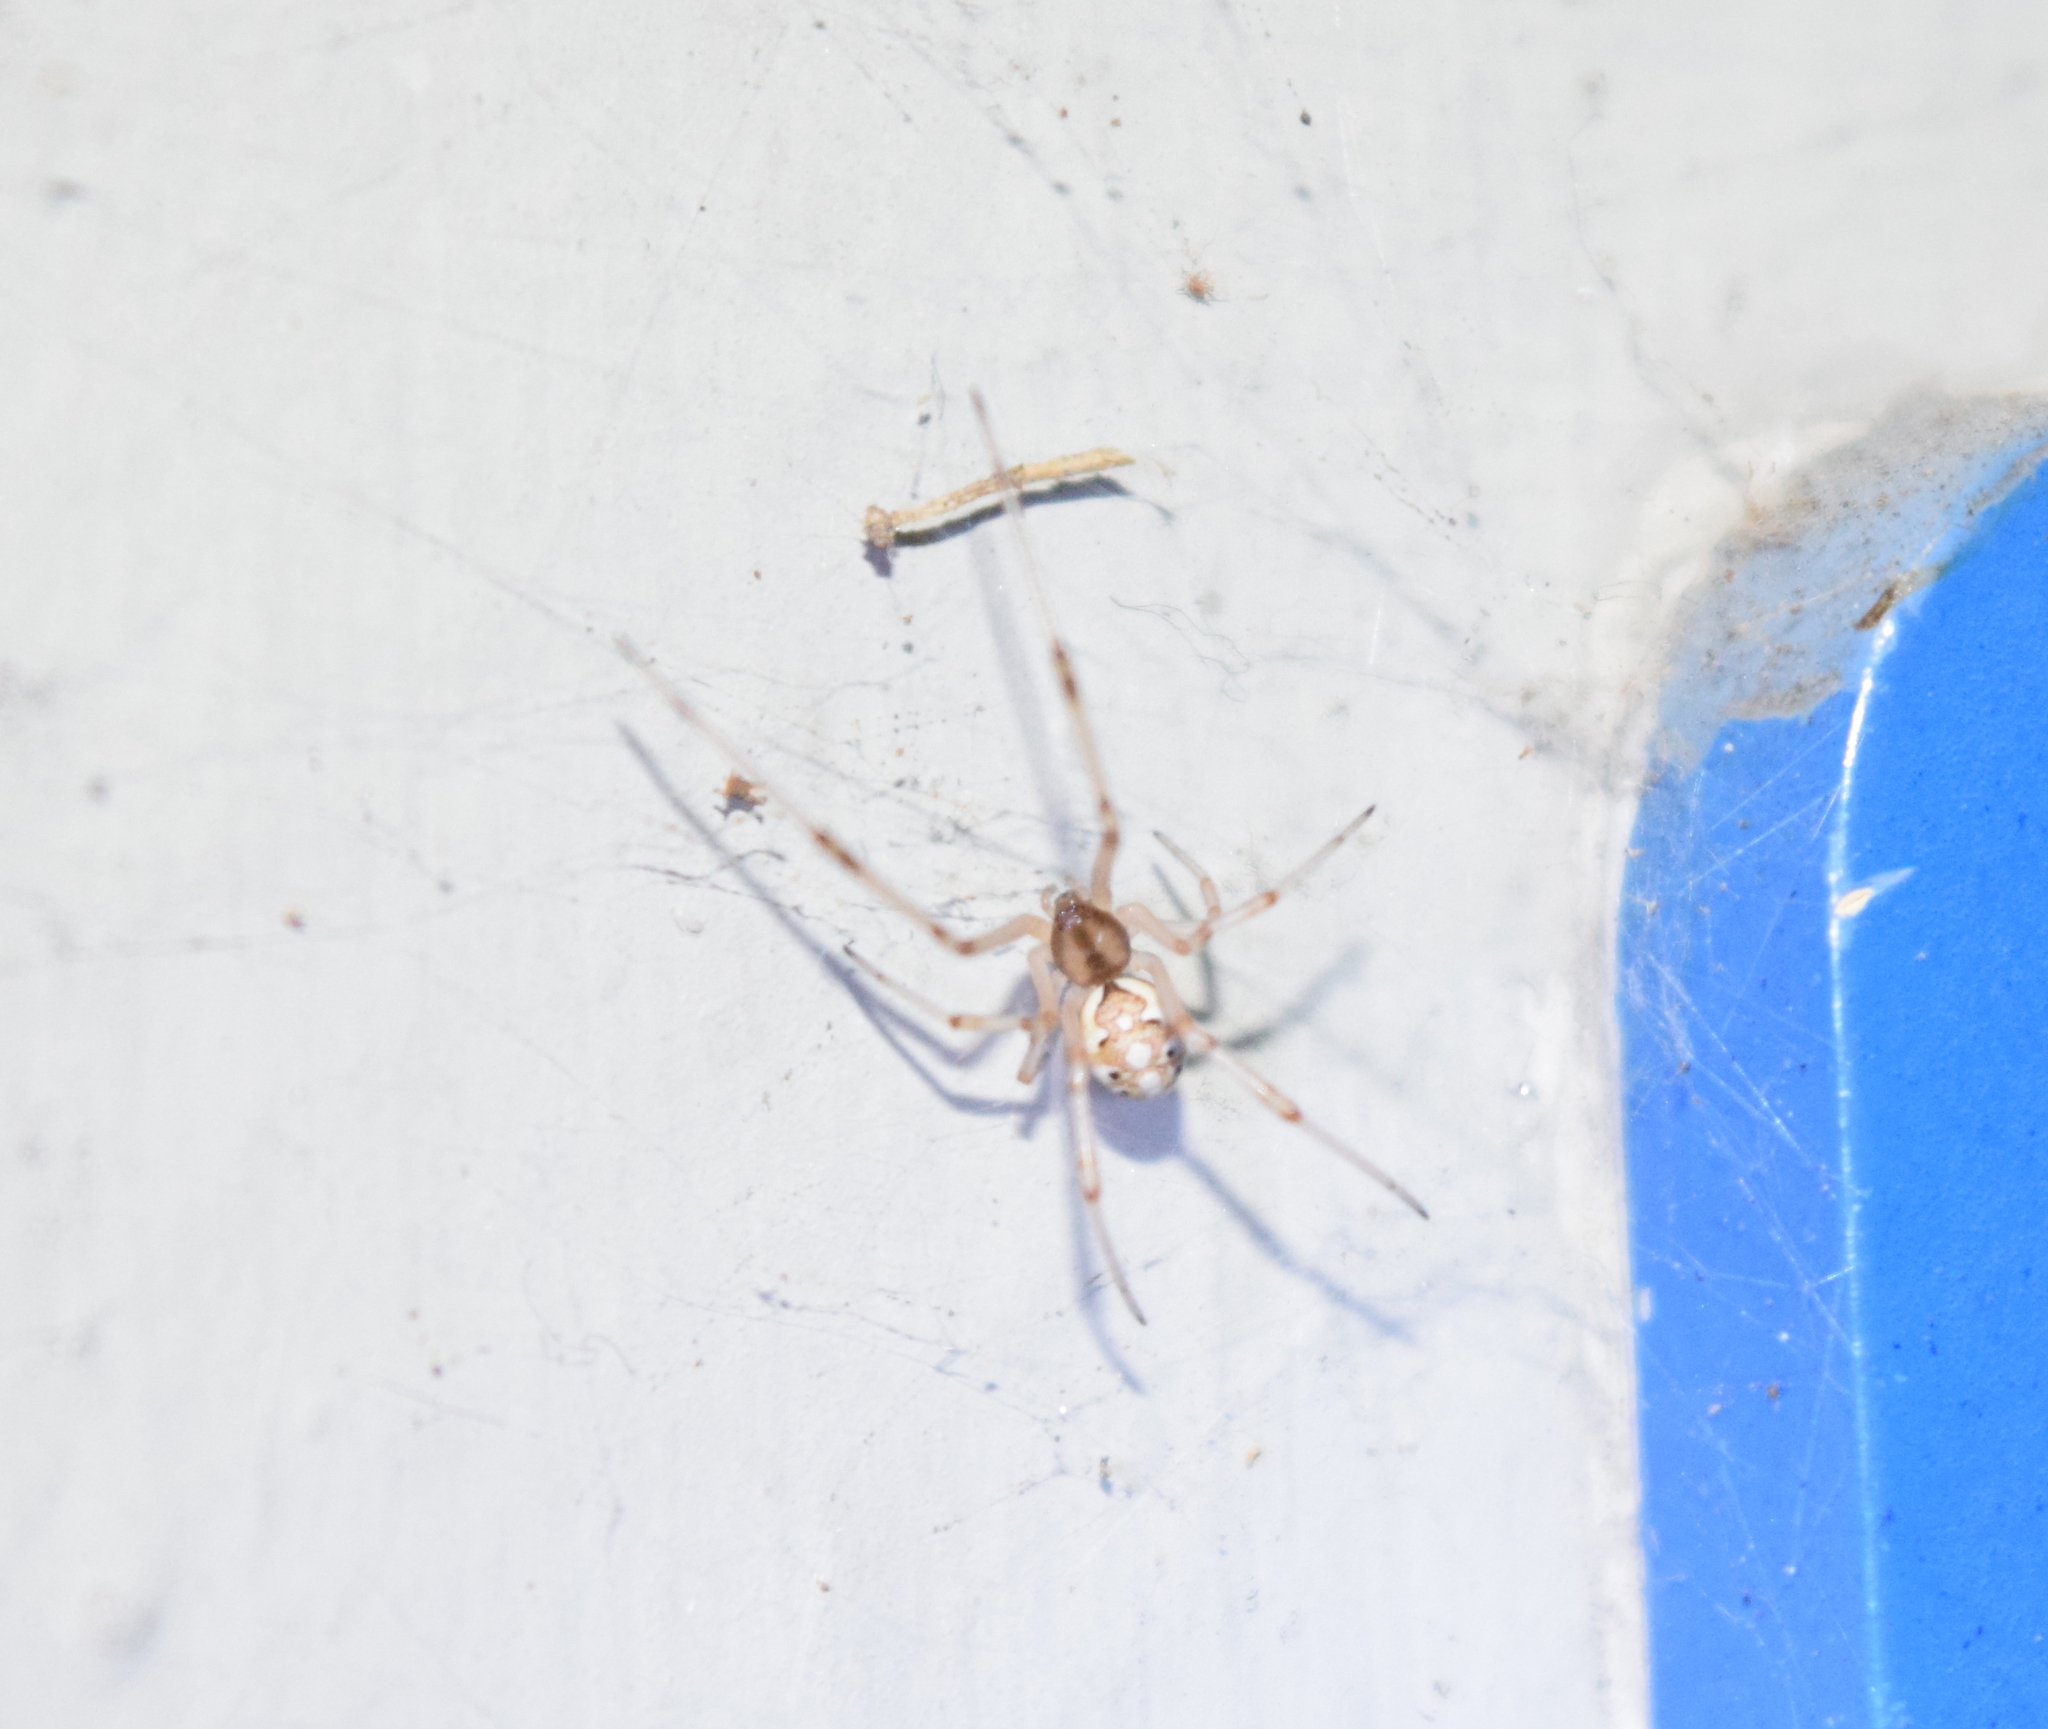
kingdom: Animalia
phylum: Arthropoda
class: Arachnida
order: Araneae
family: Theridiidae
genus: Latrodectus
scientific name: Latrodectus geometricus
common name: Brown widow spider
